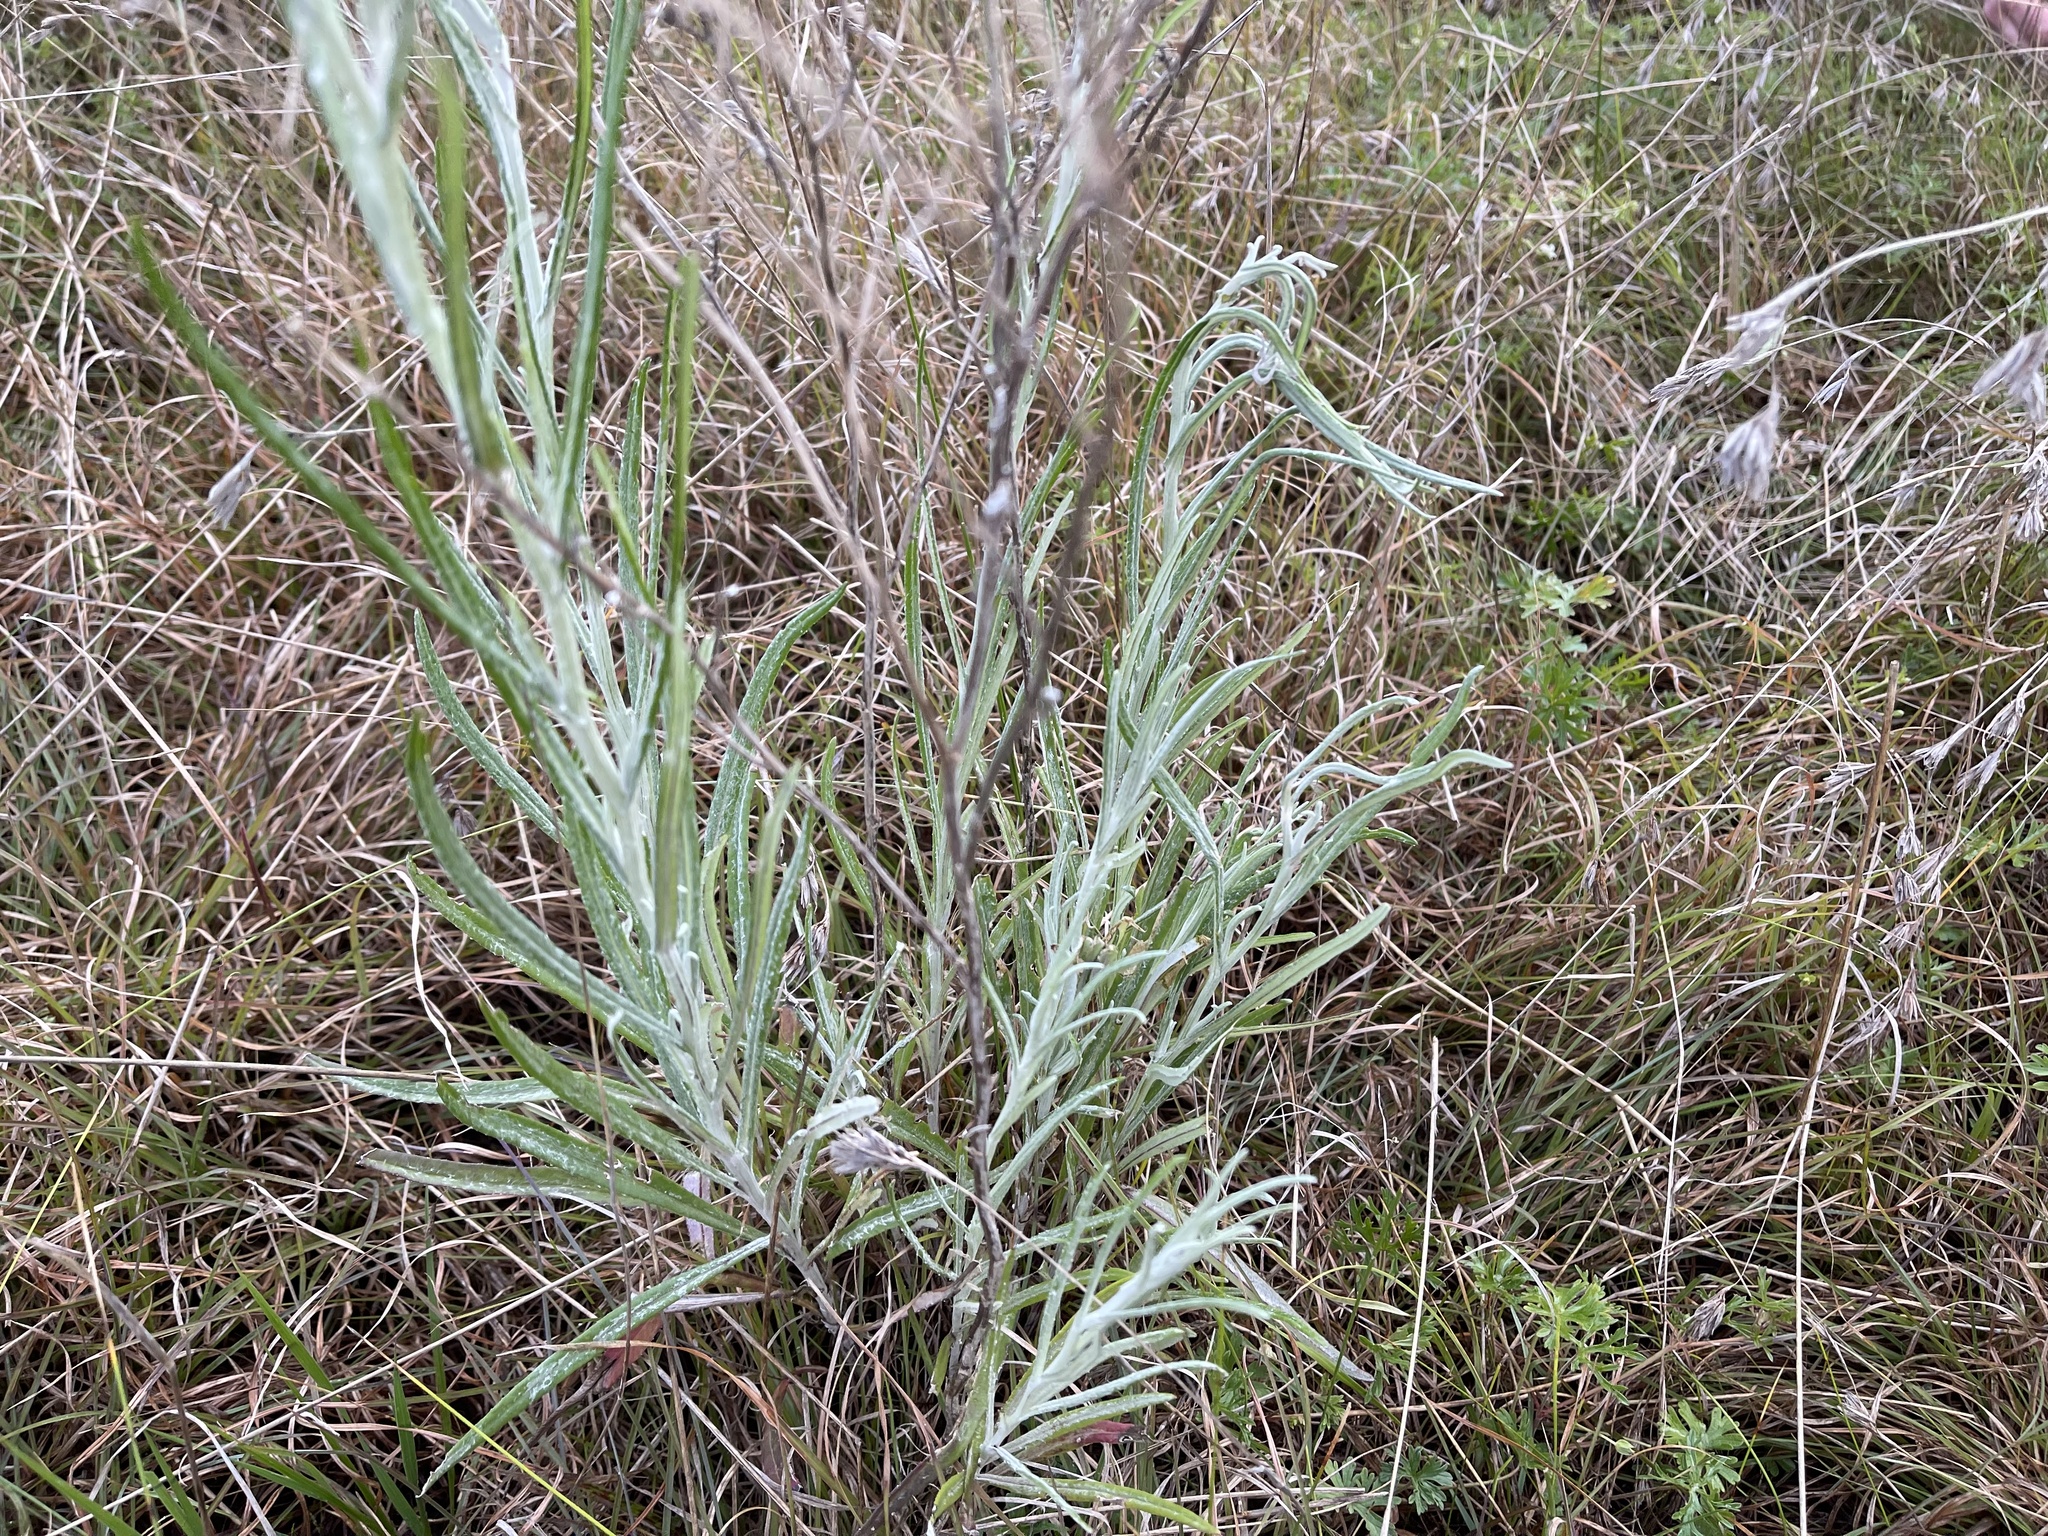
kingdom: Plantae
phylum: Tracheophyta
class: Magnoliopsida
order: Asterales
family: Asteraceae
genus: Senecio
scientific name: Senecio quadridentatus
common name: Cotton fireweed
